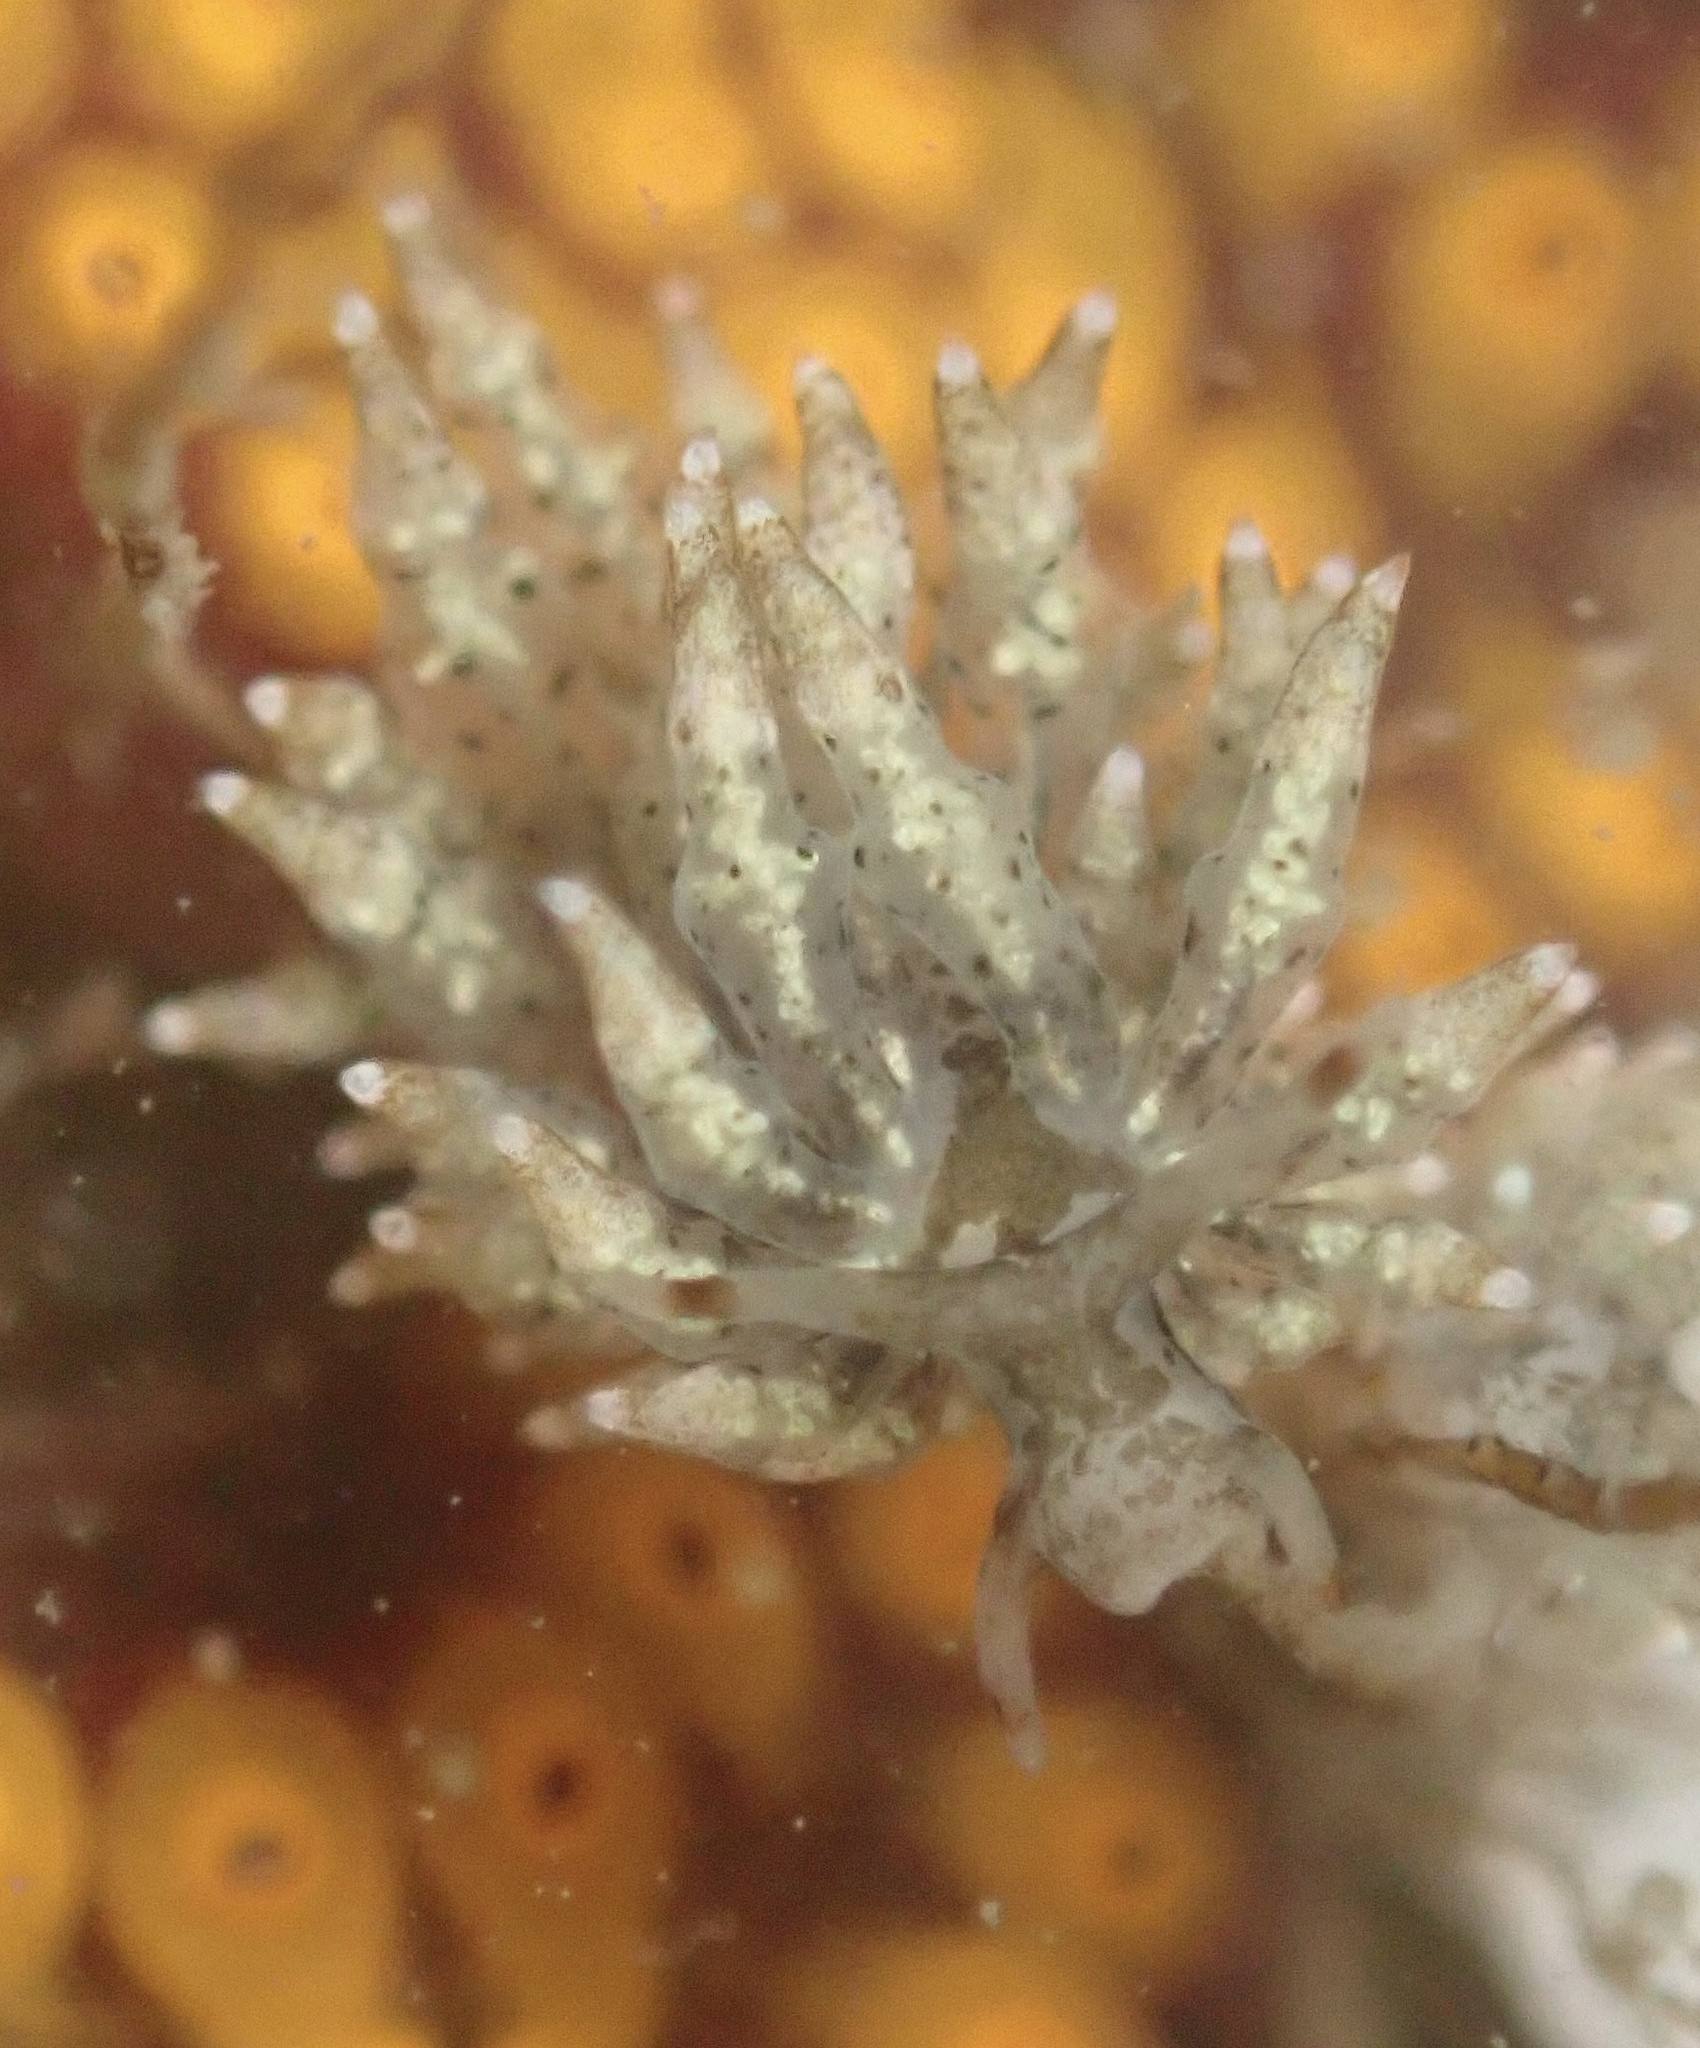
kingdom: Animalia
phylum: Mollusca
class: Gastropoda
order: Nudibranchia
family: Eubranchidae
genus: Eubranchus
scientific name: Eubranchus rustyus
